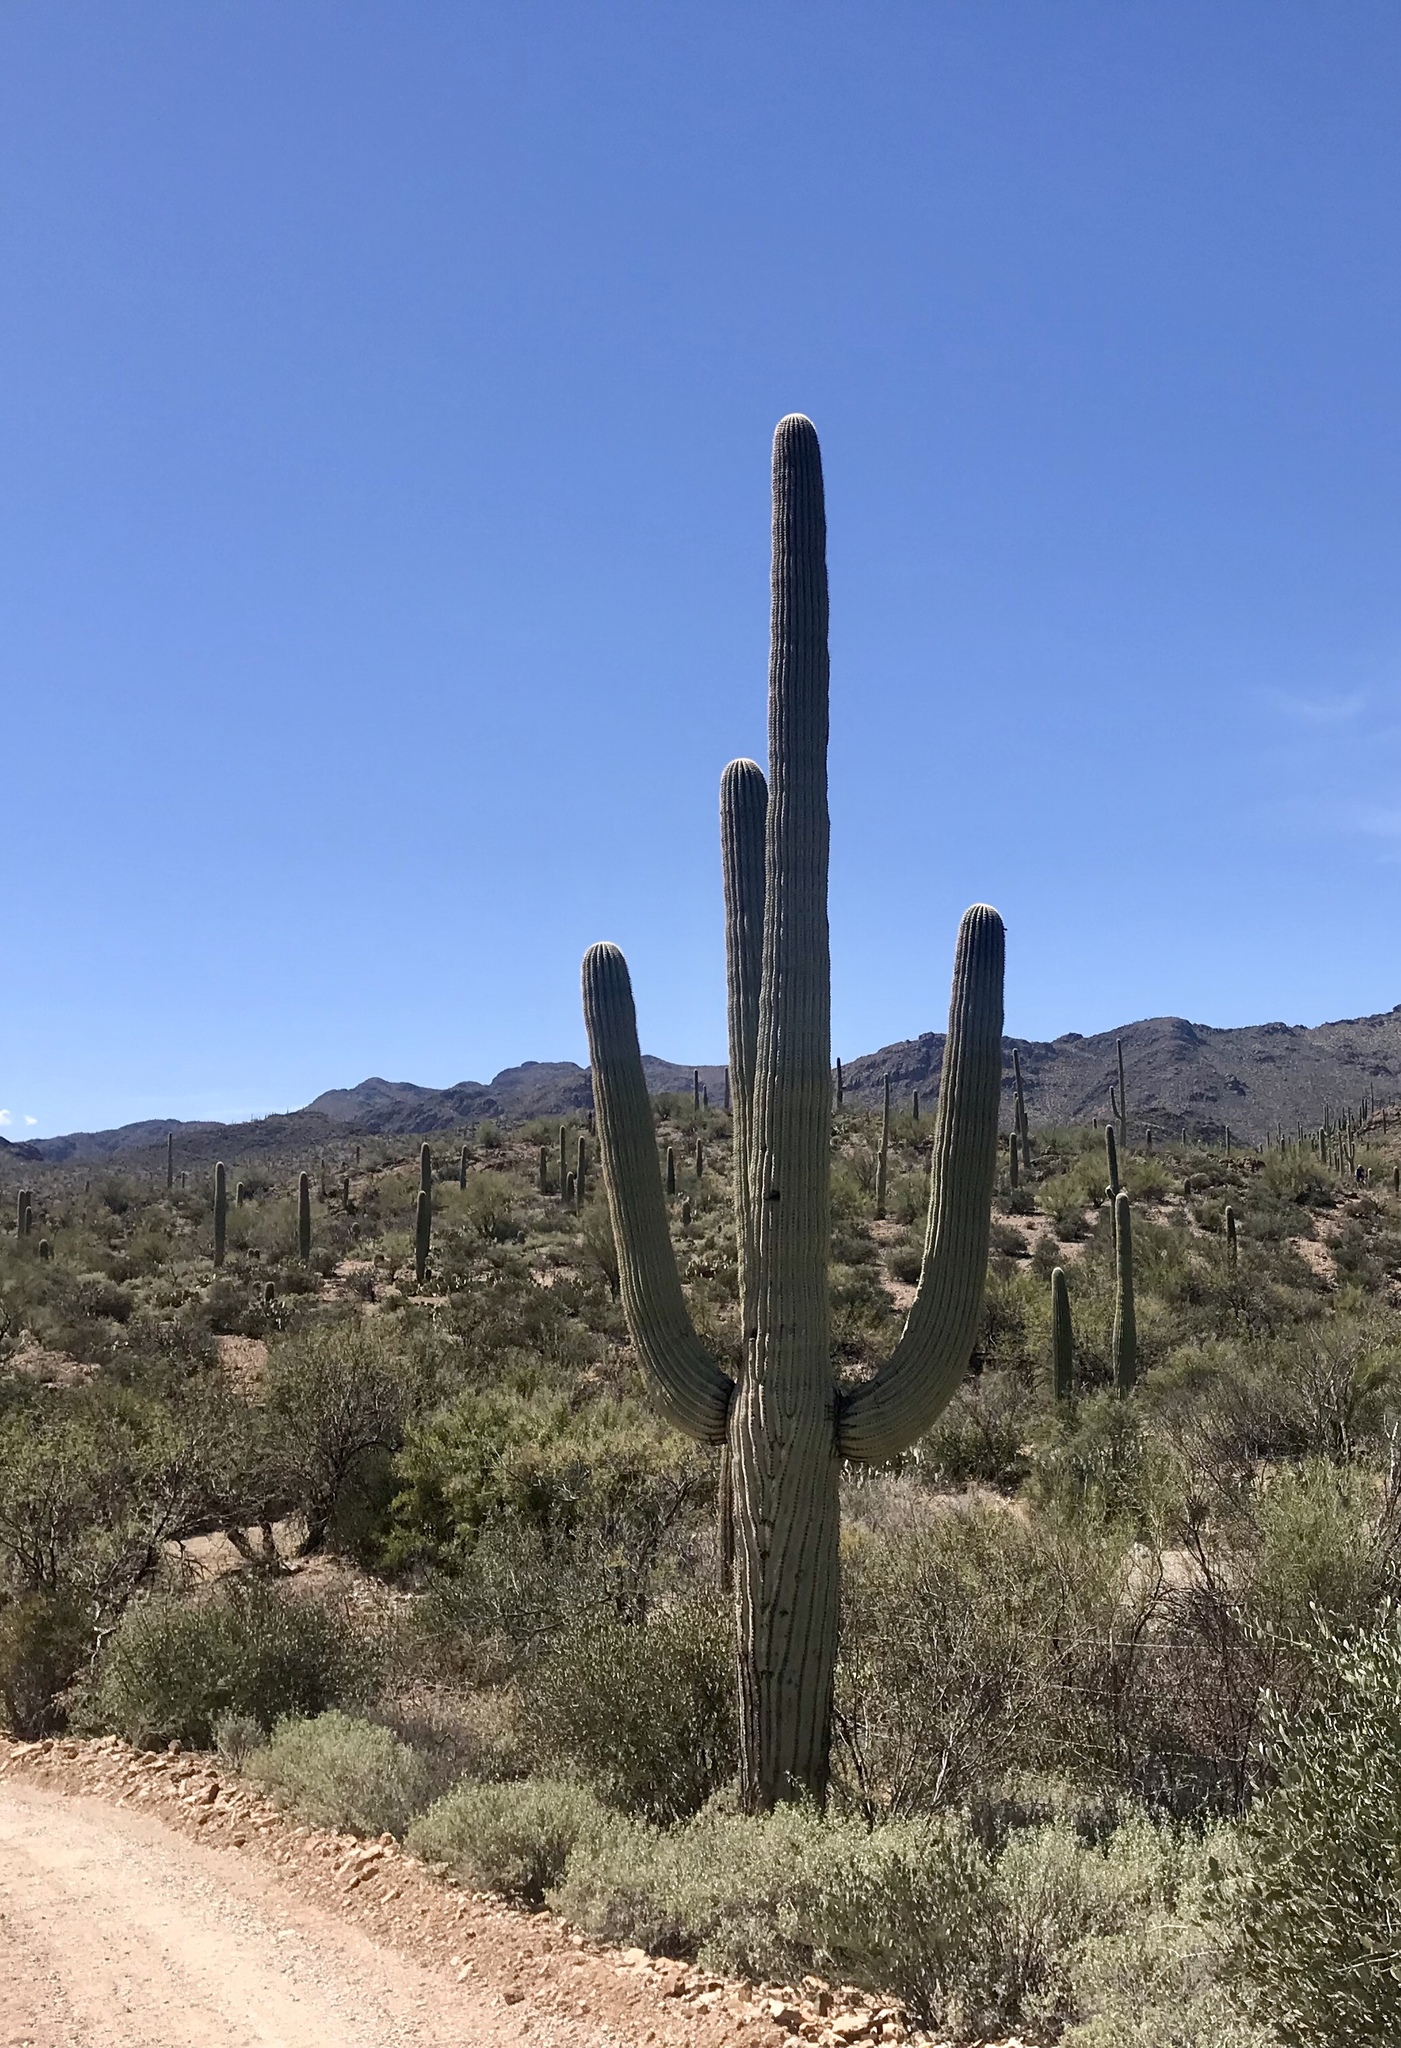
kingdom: Plantae
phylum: Tracheophyta
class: Magnoliopsida
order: Caryophyllales
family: Cactaceae
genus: Carnegiea
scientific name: Carnegiea gigantea
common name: Saguaro
